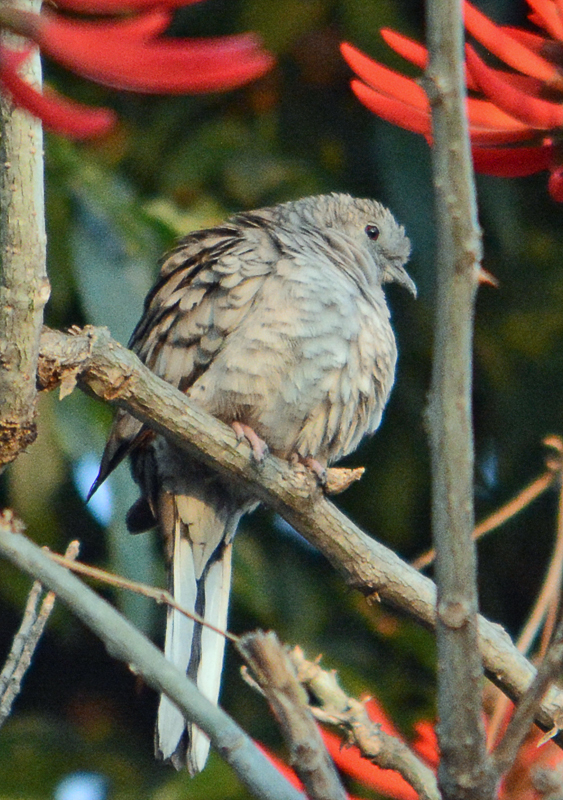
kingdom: Animalia
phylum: Chordata
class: Aves
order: Columbiformes
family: Columbidae
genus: Columbina
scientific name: Columbina inca
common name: Inca dove
